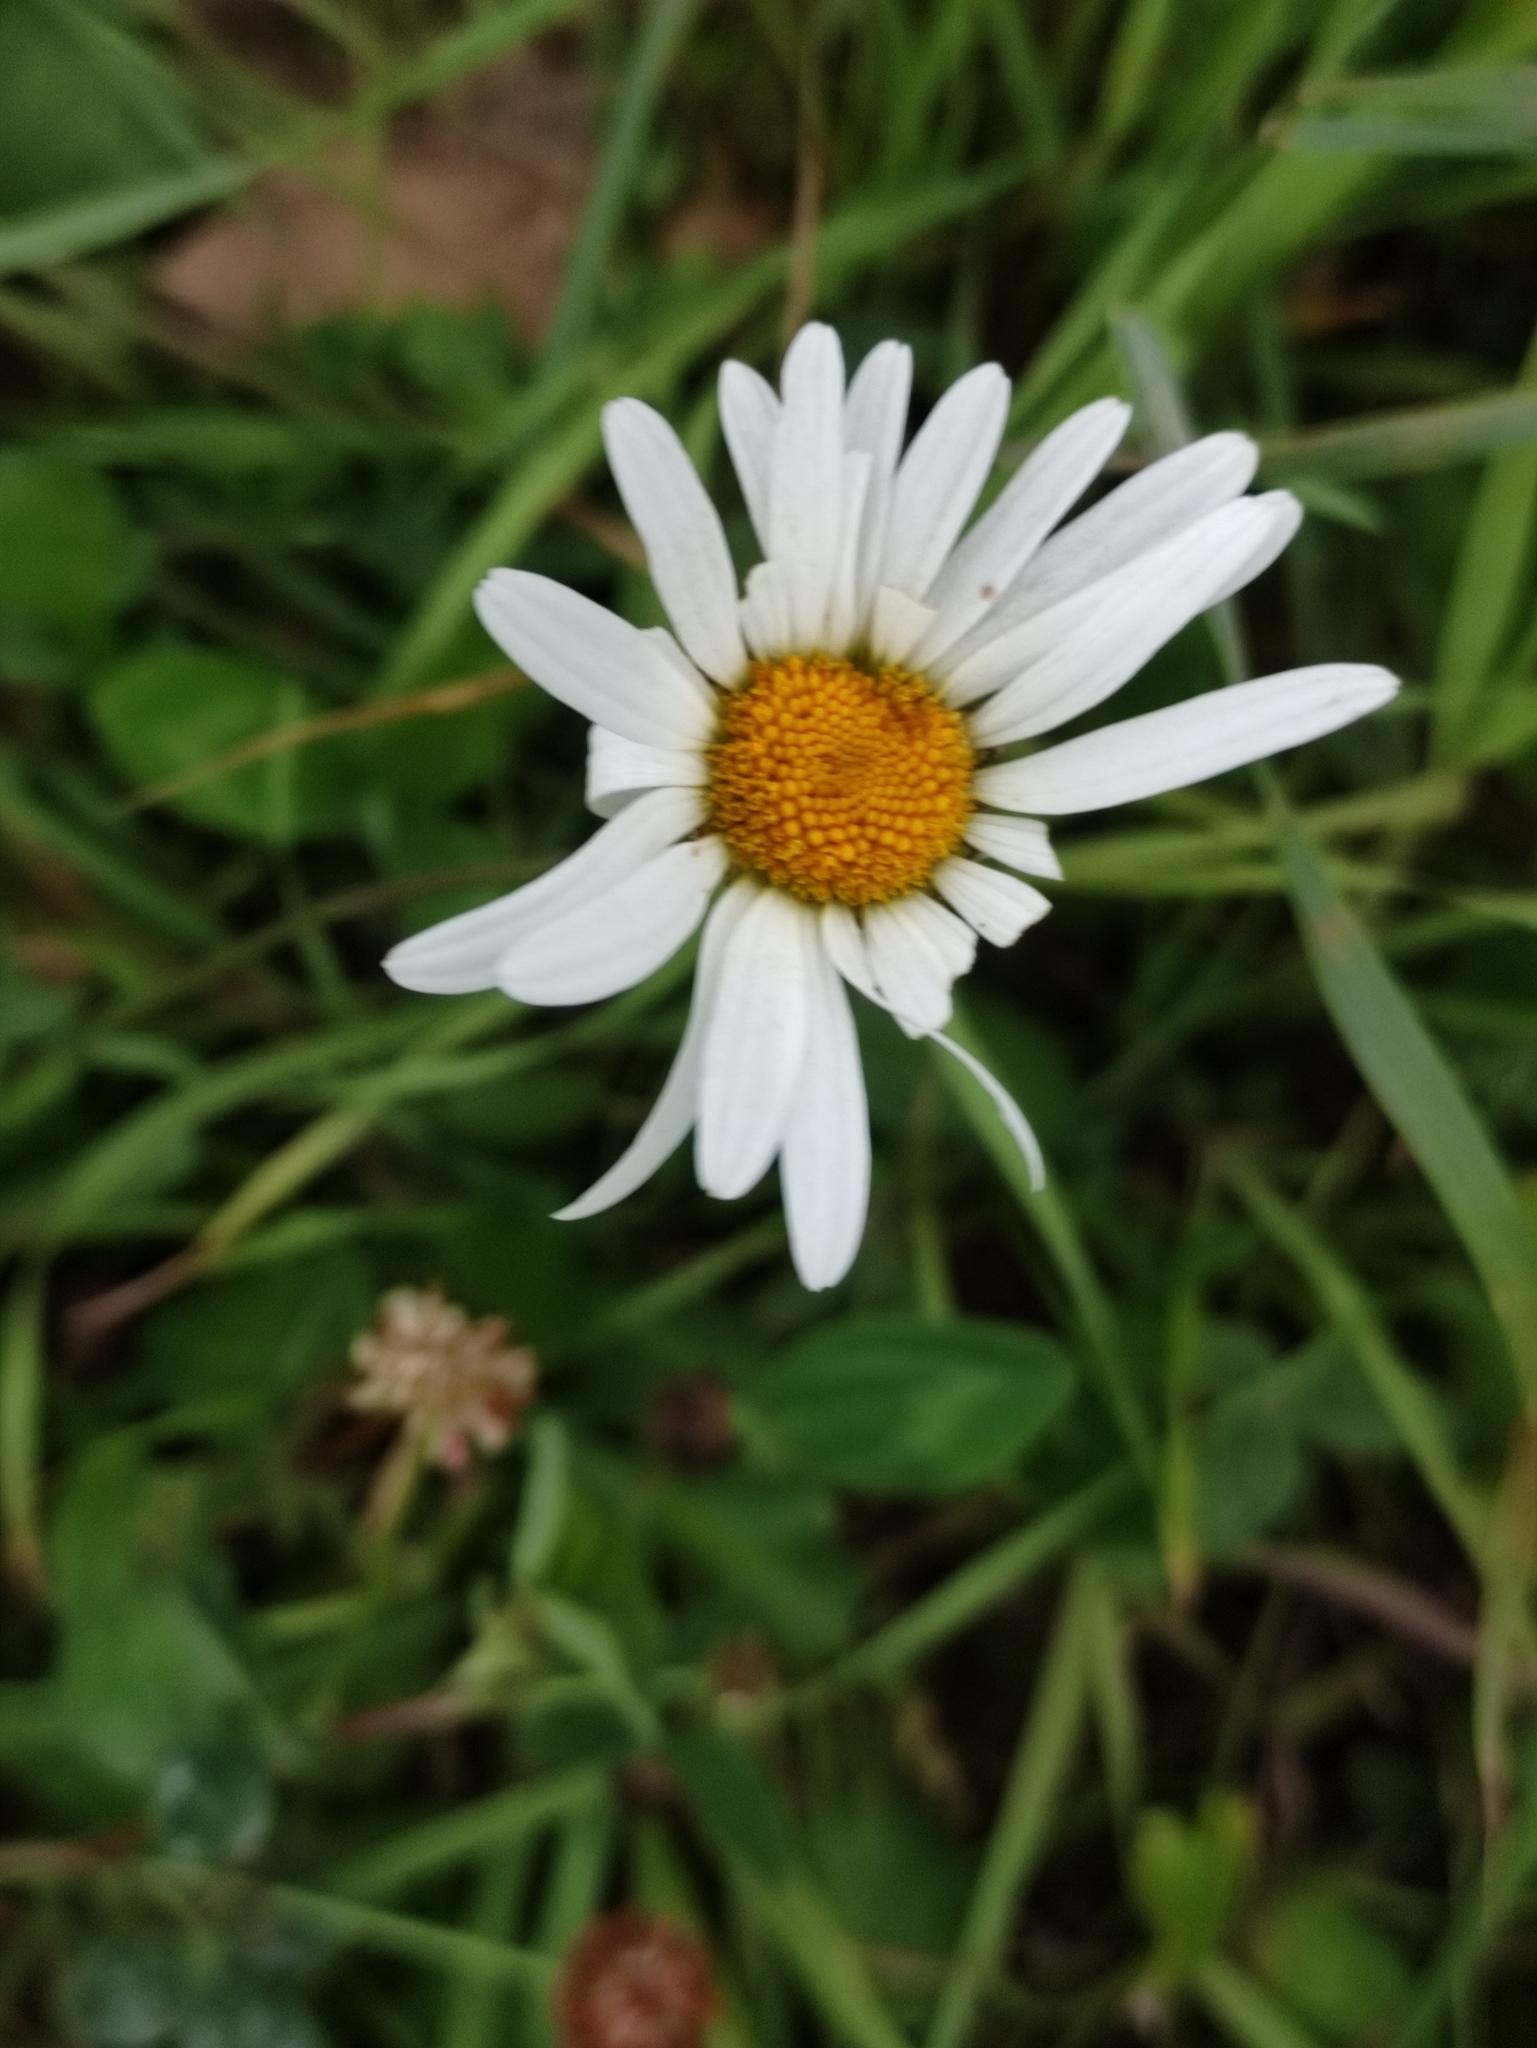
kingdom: Plantae
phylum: Tracheophyta
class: Magnoliopsida
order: Asterales
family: Asteraceae
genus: Leucanthemum
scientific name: Leucanthemum vulgare
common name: Oxeye daisy
